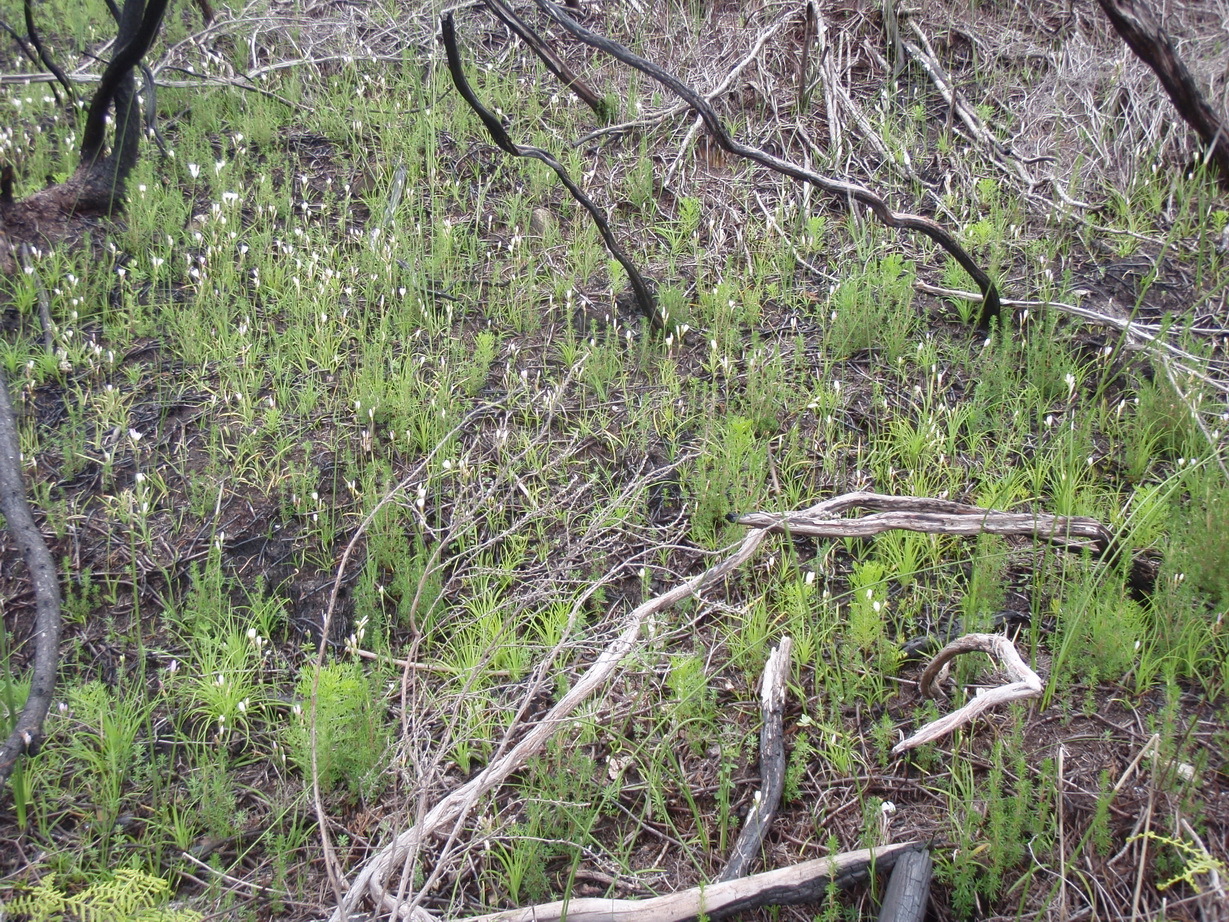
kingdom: Plantae
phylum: Tracheophyta
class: Liliopsida
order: Asparagales
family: Iridaceae
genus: Hesperantha
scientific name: Hesperantha falcata
